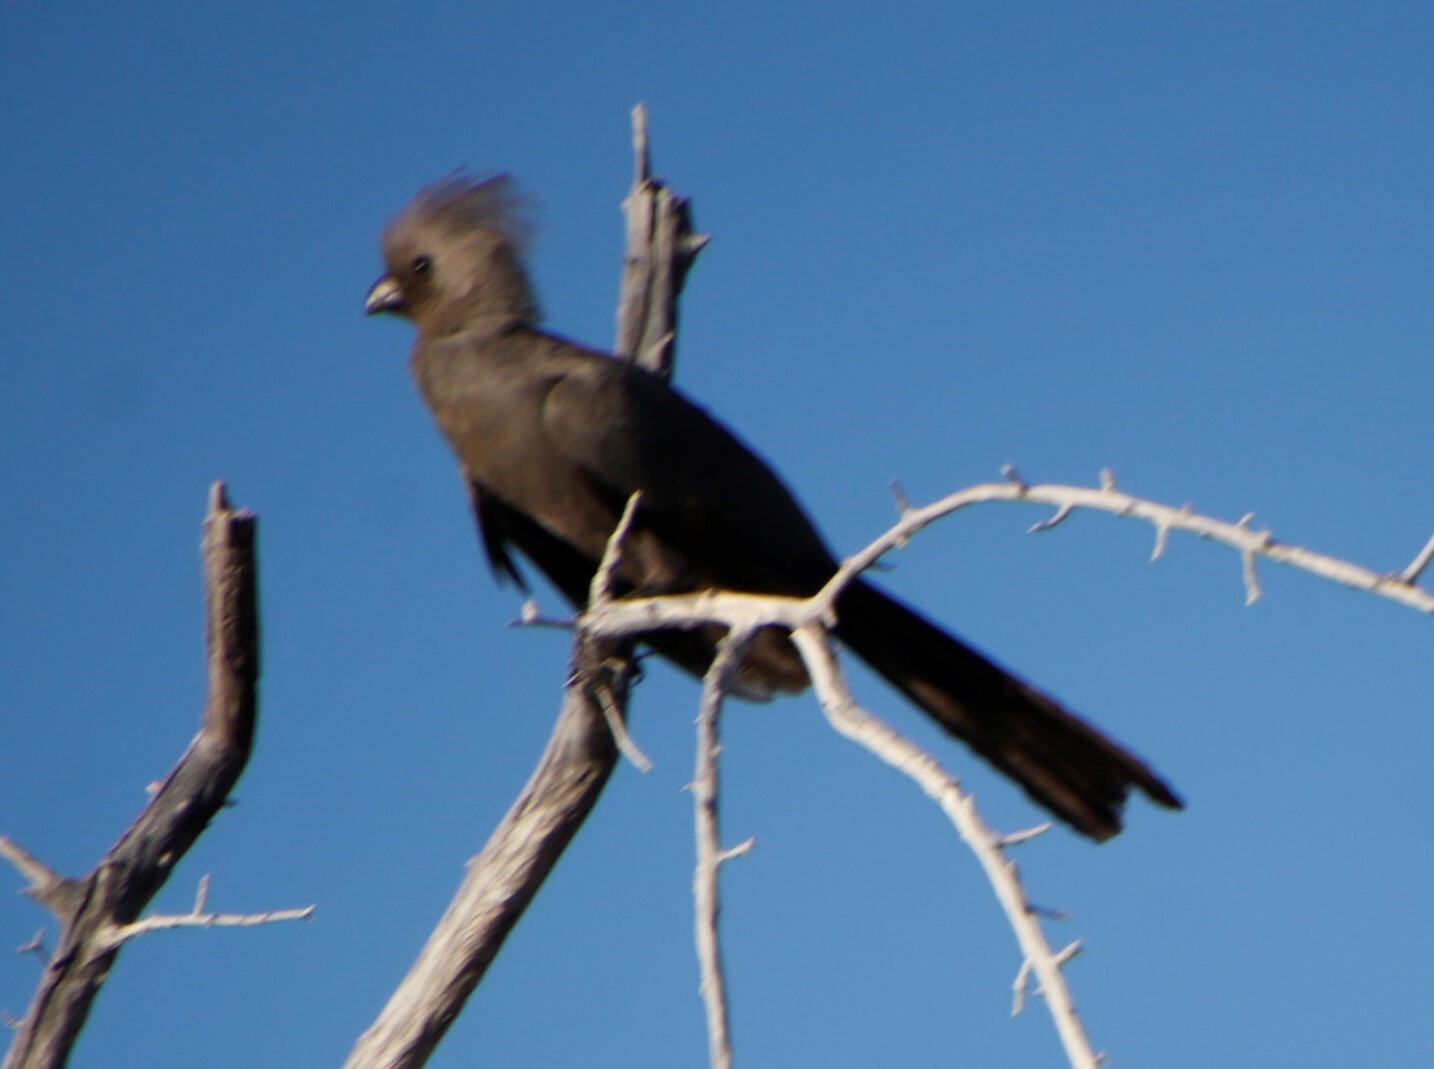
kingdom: Animalia
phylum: Chordata
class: Aves
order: Musophagiformes
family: Musophagidae
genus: Corythaixoides
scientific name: Corythaixoides concolor
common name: Grey go-away-bird
